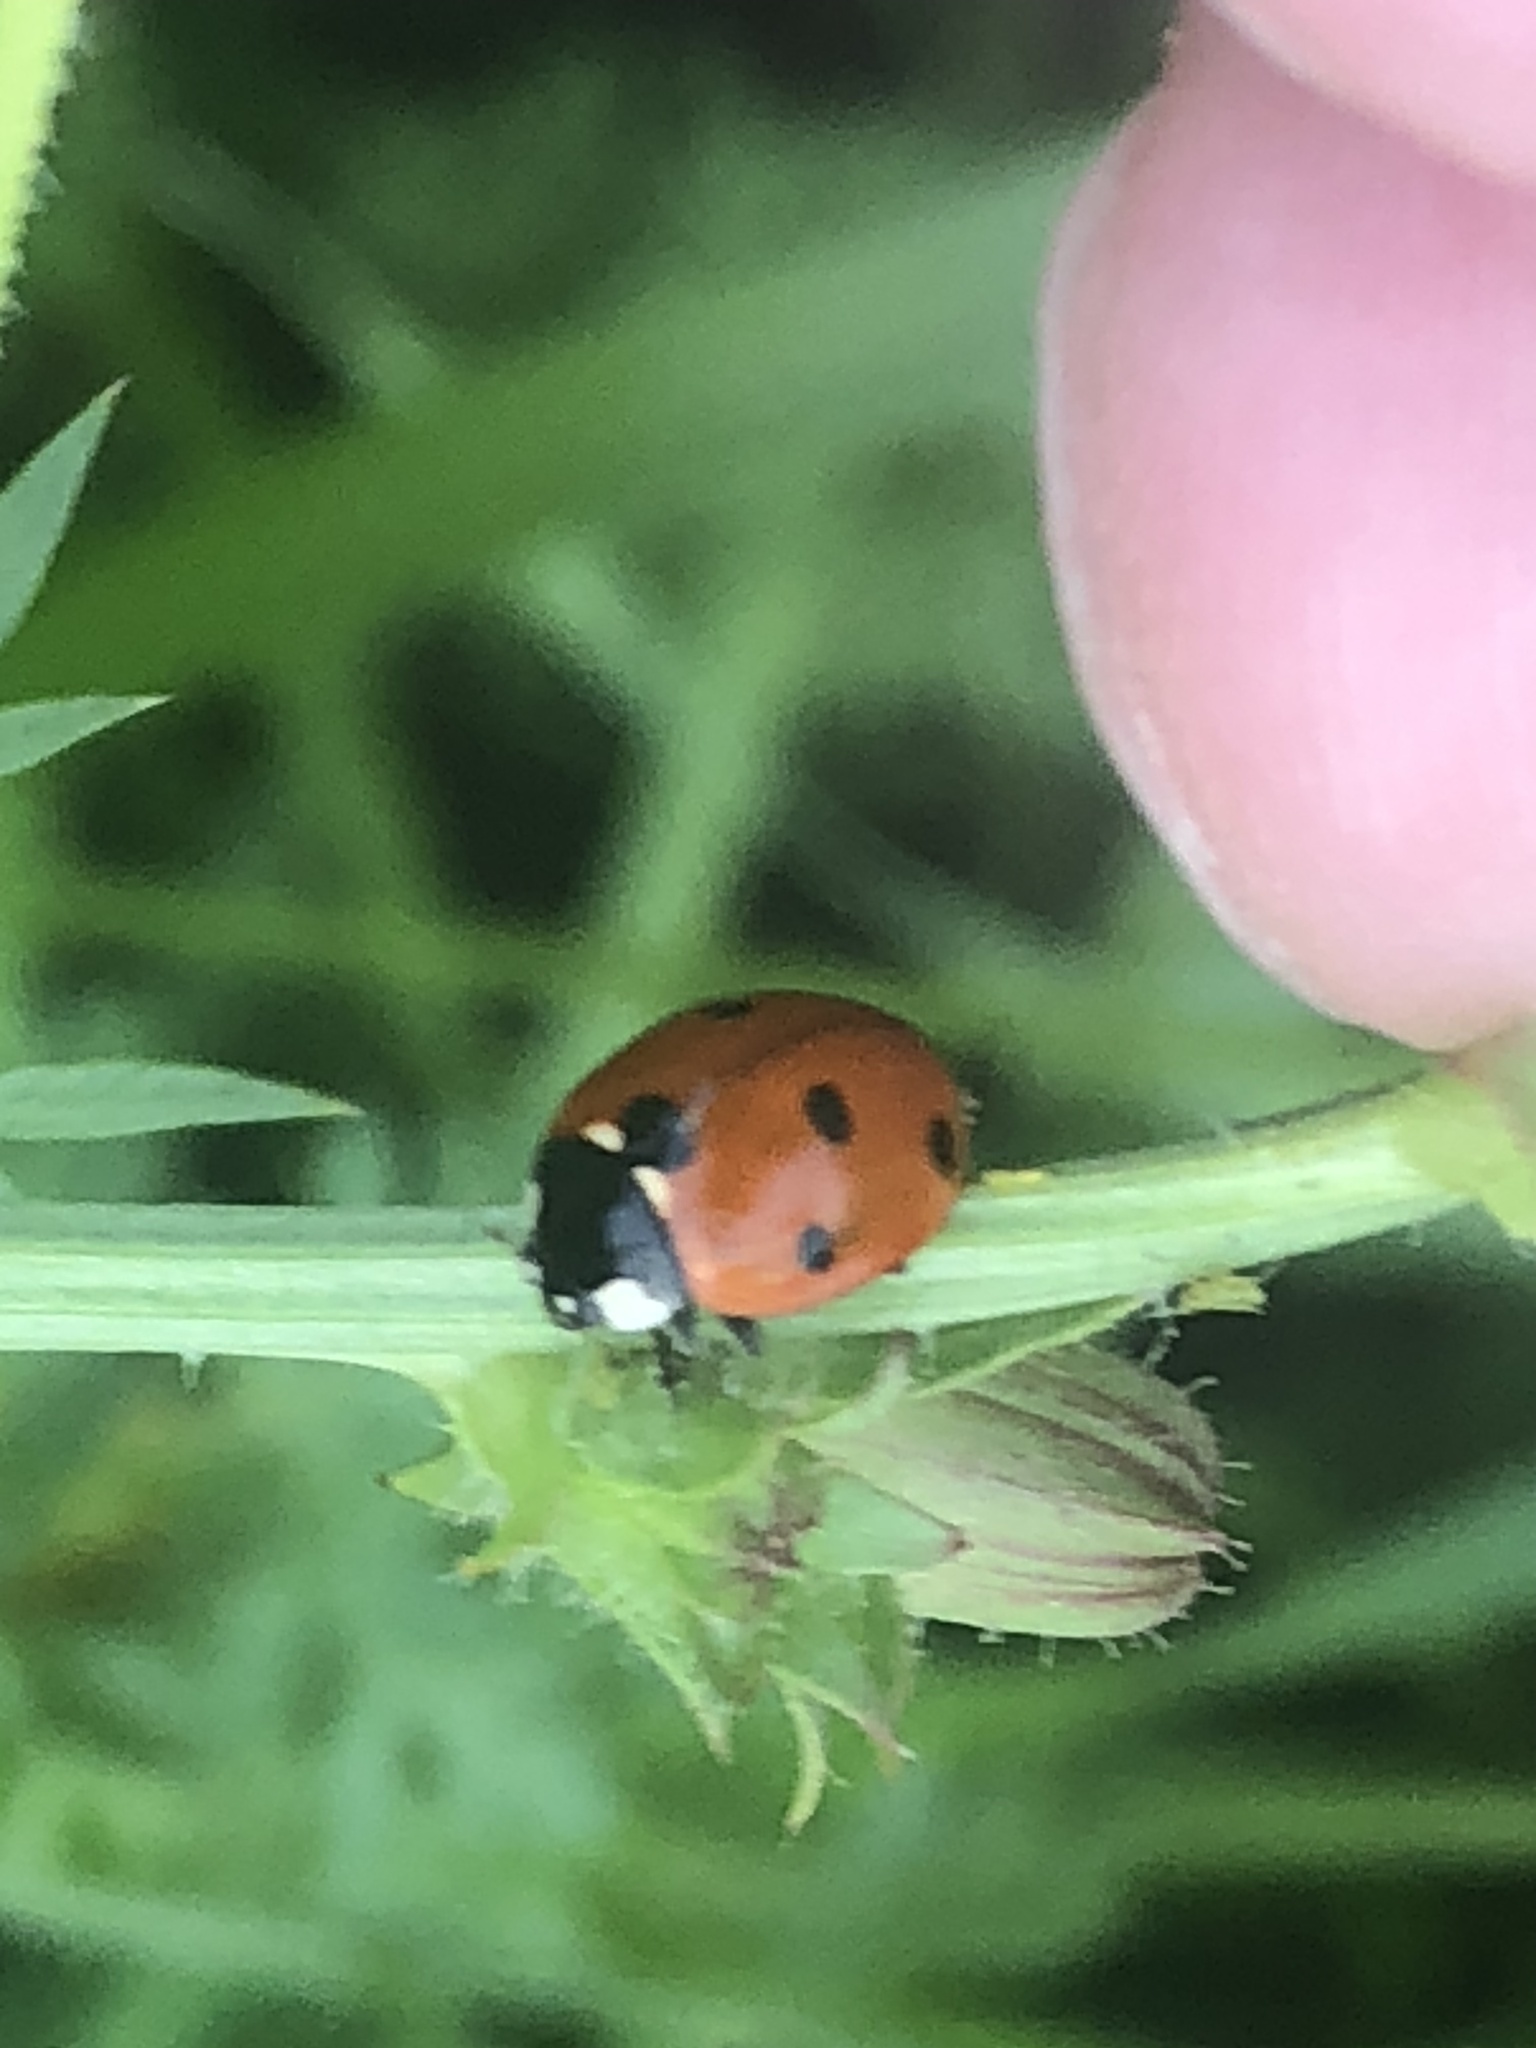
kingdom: Animalia
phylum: Arthropoda
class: Insecta
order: Coleoptera
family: Coccinellidae
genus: Coccinella
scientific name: Coccinella septempunctata
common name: Sevenspotted lady beetle
